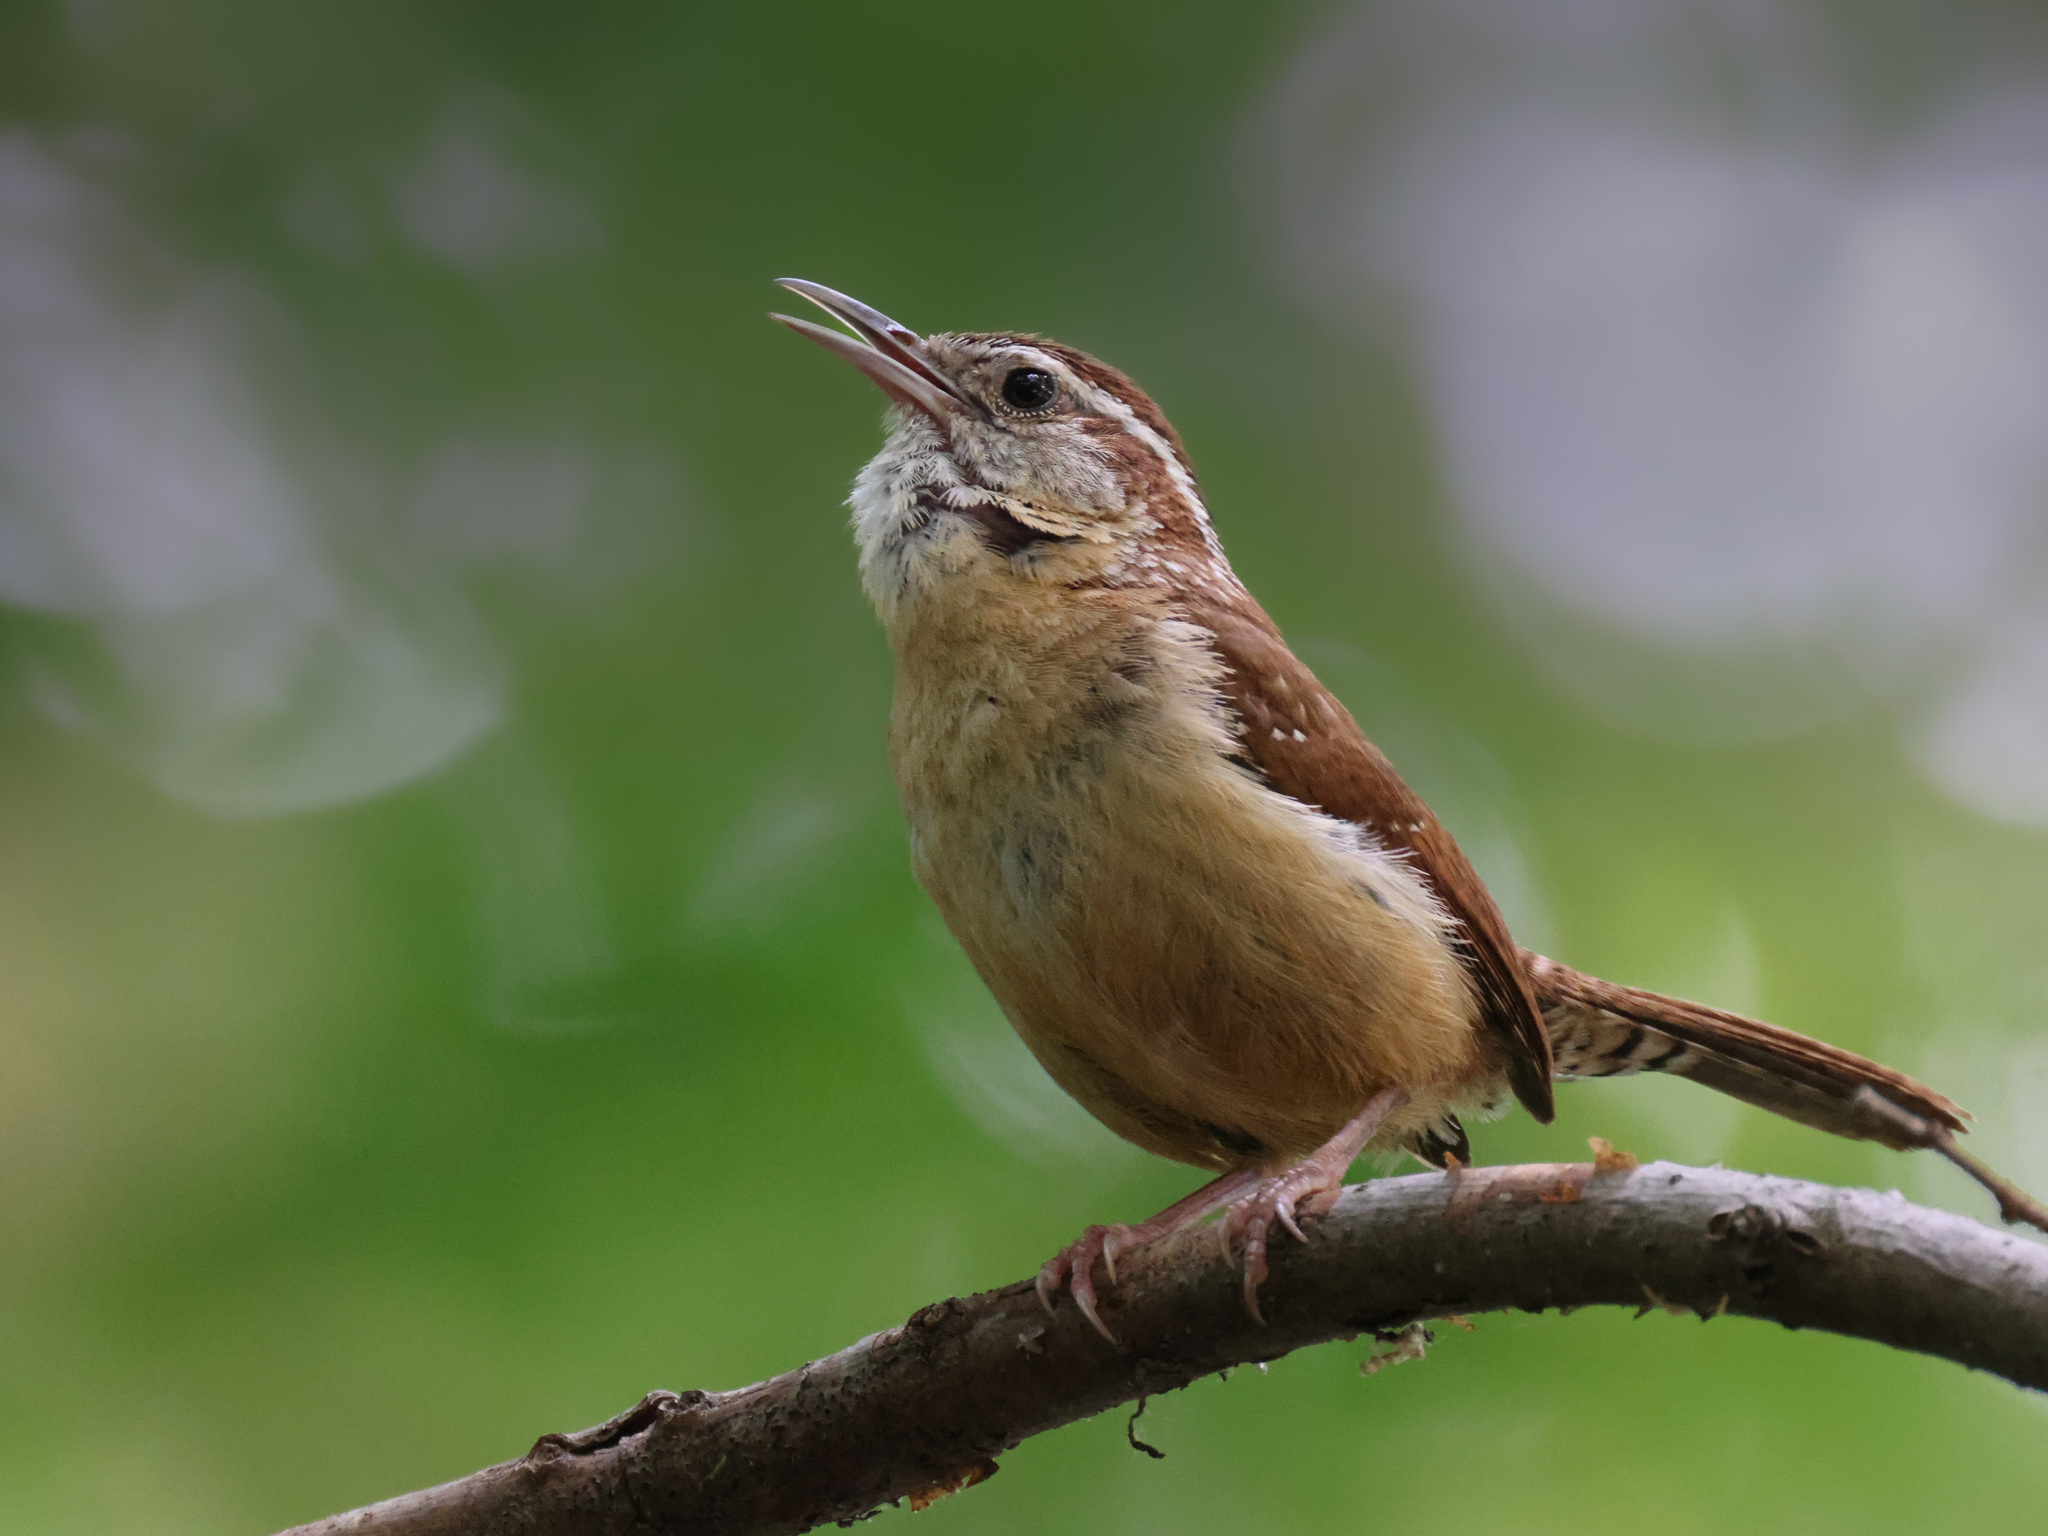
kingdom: Animalia
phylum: Chordata
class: Aves
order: Passeriformes
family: Troglodytidae
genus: Thryothorus
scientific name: Thryothorus ludovicianus
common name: Carolina wren
